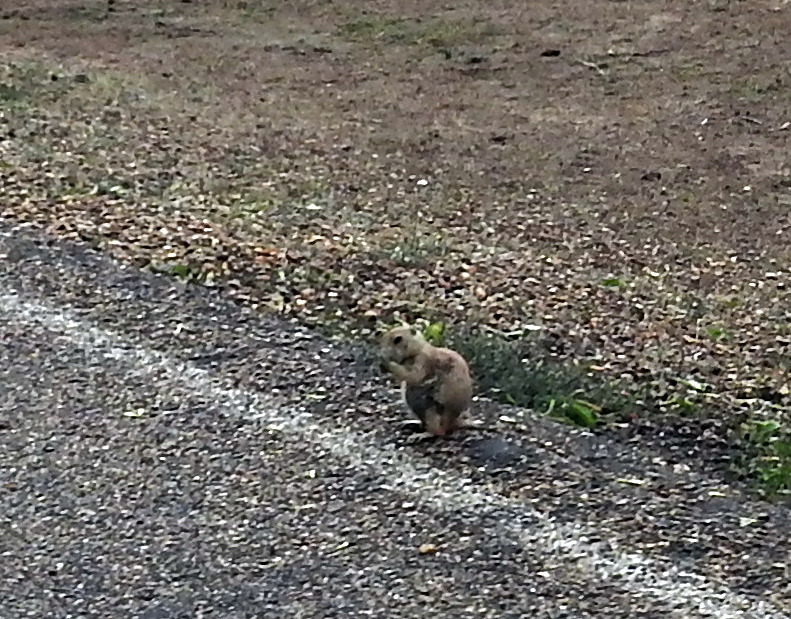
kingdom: Animalia
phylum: Chordata
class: Mammalia
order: Rodentia
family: Sciuridae
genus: Cynomys
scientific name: Cynomys ludovicianus
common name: Black-tailed prairie dog
